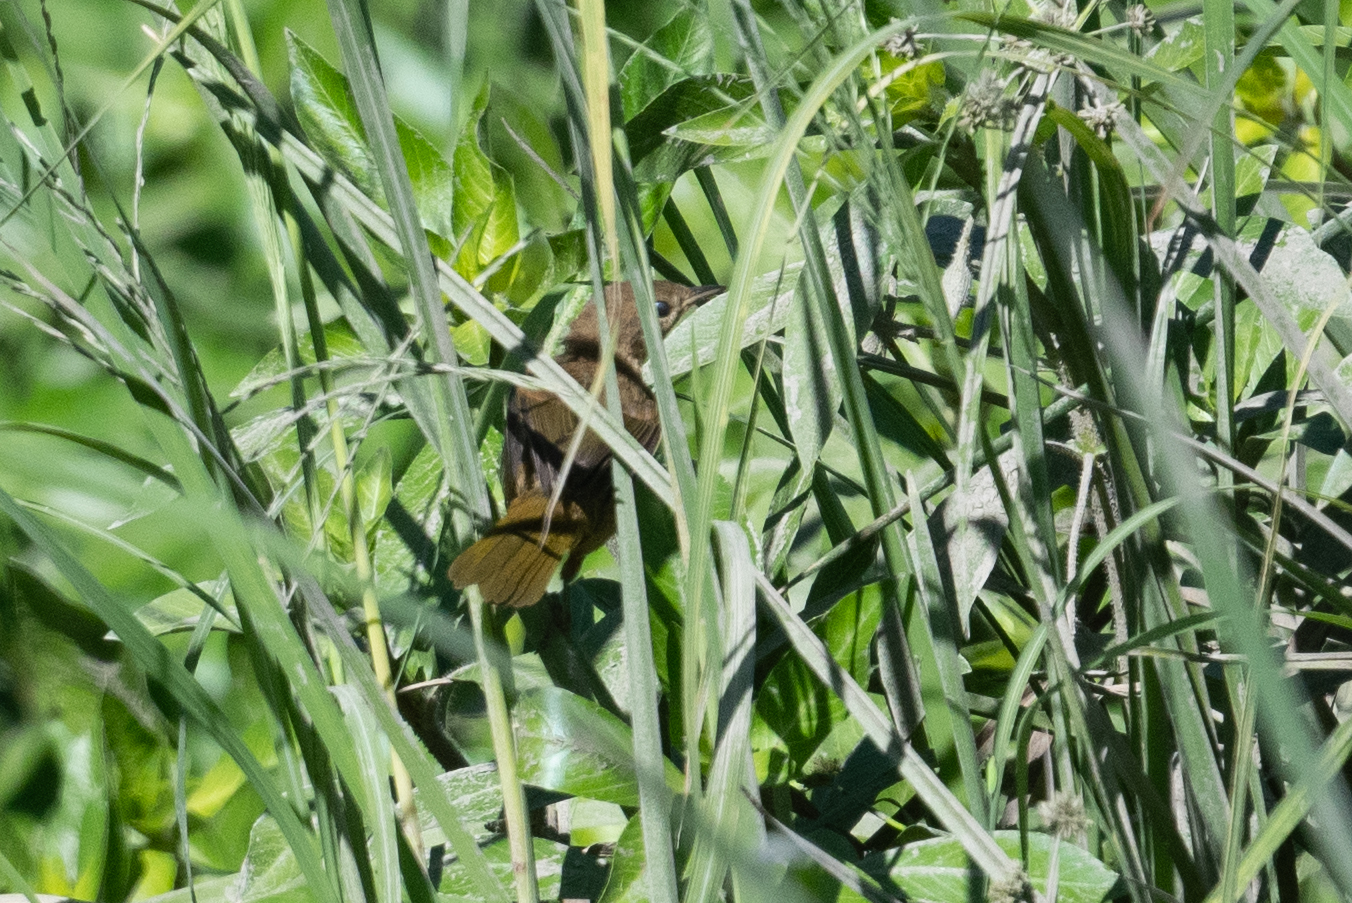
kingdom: Animalia
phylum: Chordata
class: Aves
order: Passeriformes
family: Parulidae
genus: Geothlypis
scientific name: Geothlypis trichas
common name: Common yellowthroat
